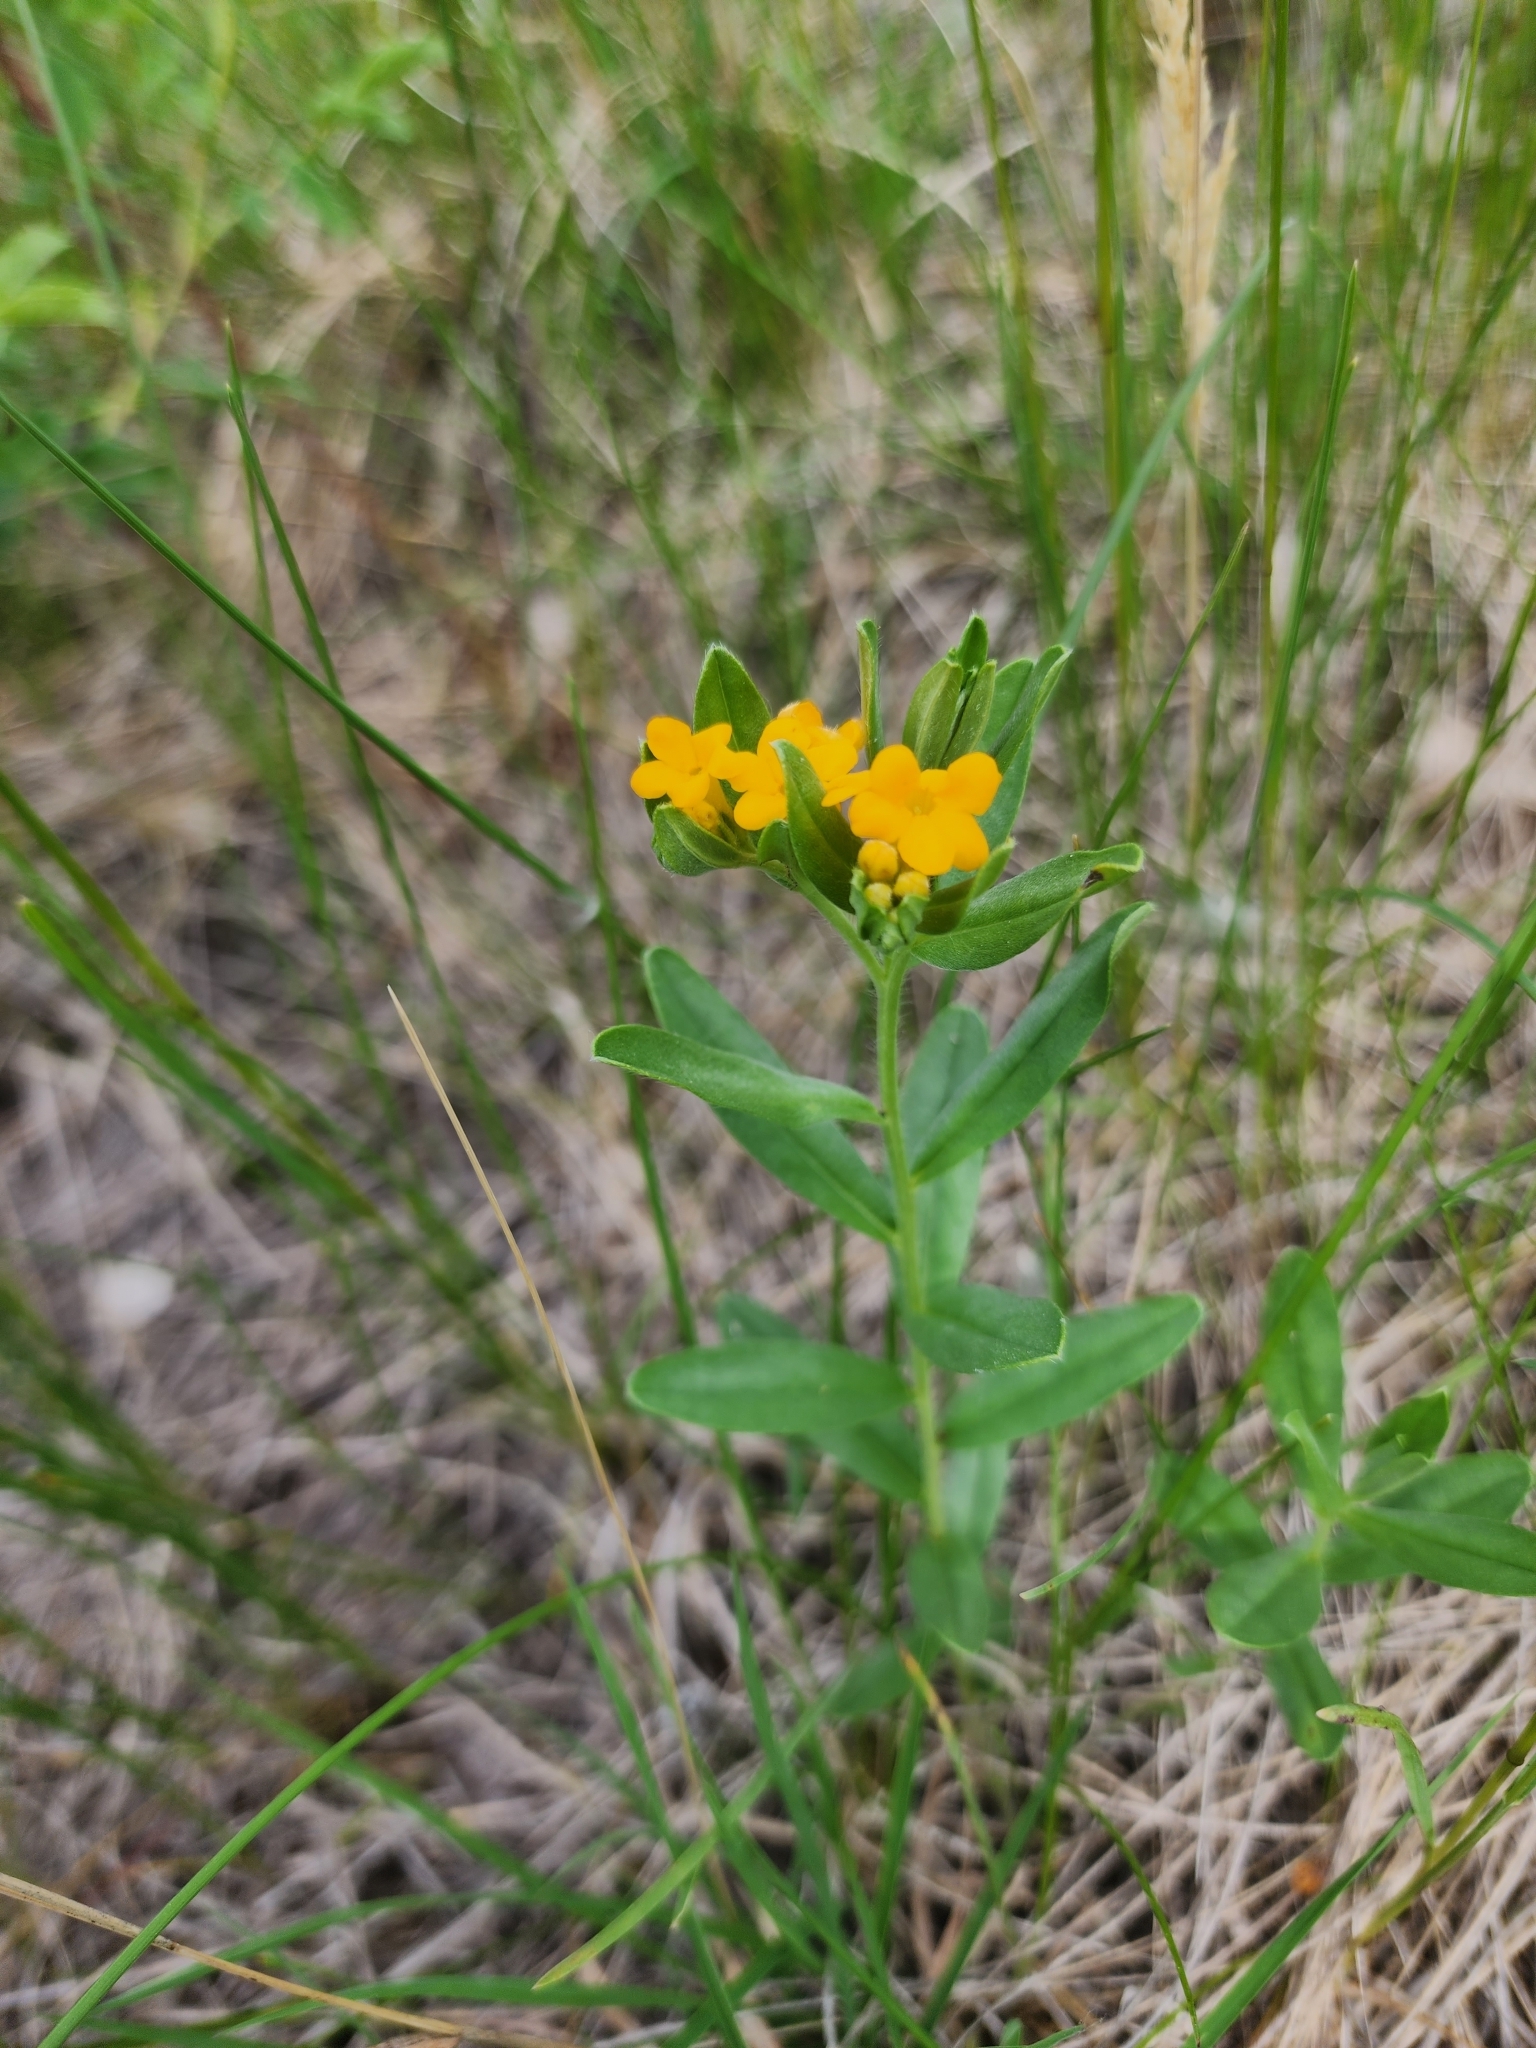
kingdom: Plantae
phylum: Tracheophyta
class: Magnoliopsida
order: Boraginales
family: Boraginaceae
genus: Lithospermum
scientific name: Lithospermum canescens
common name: Hoary puccoon
